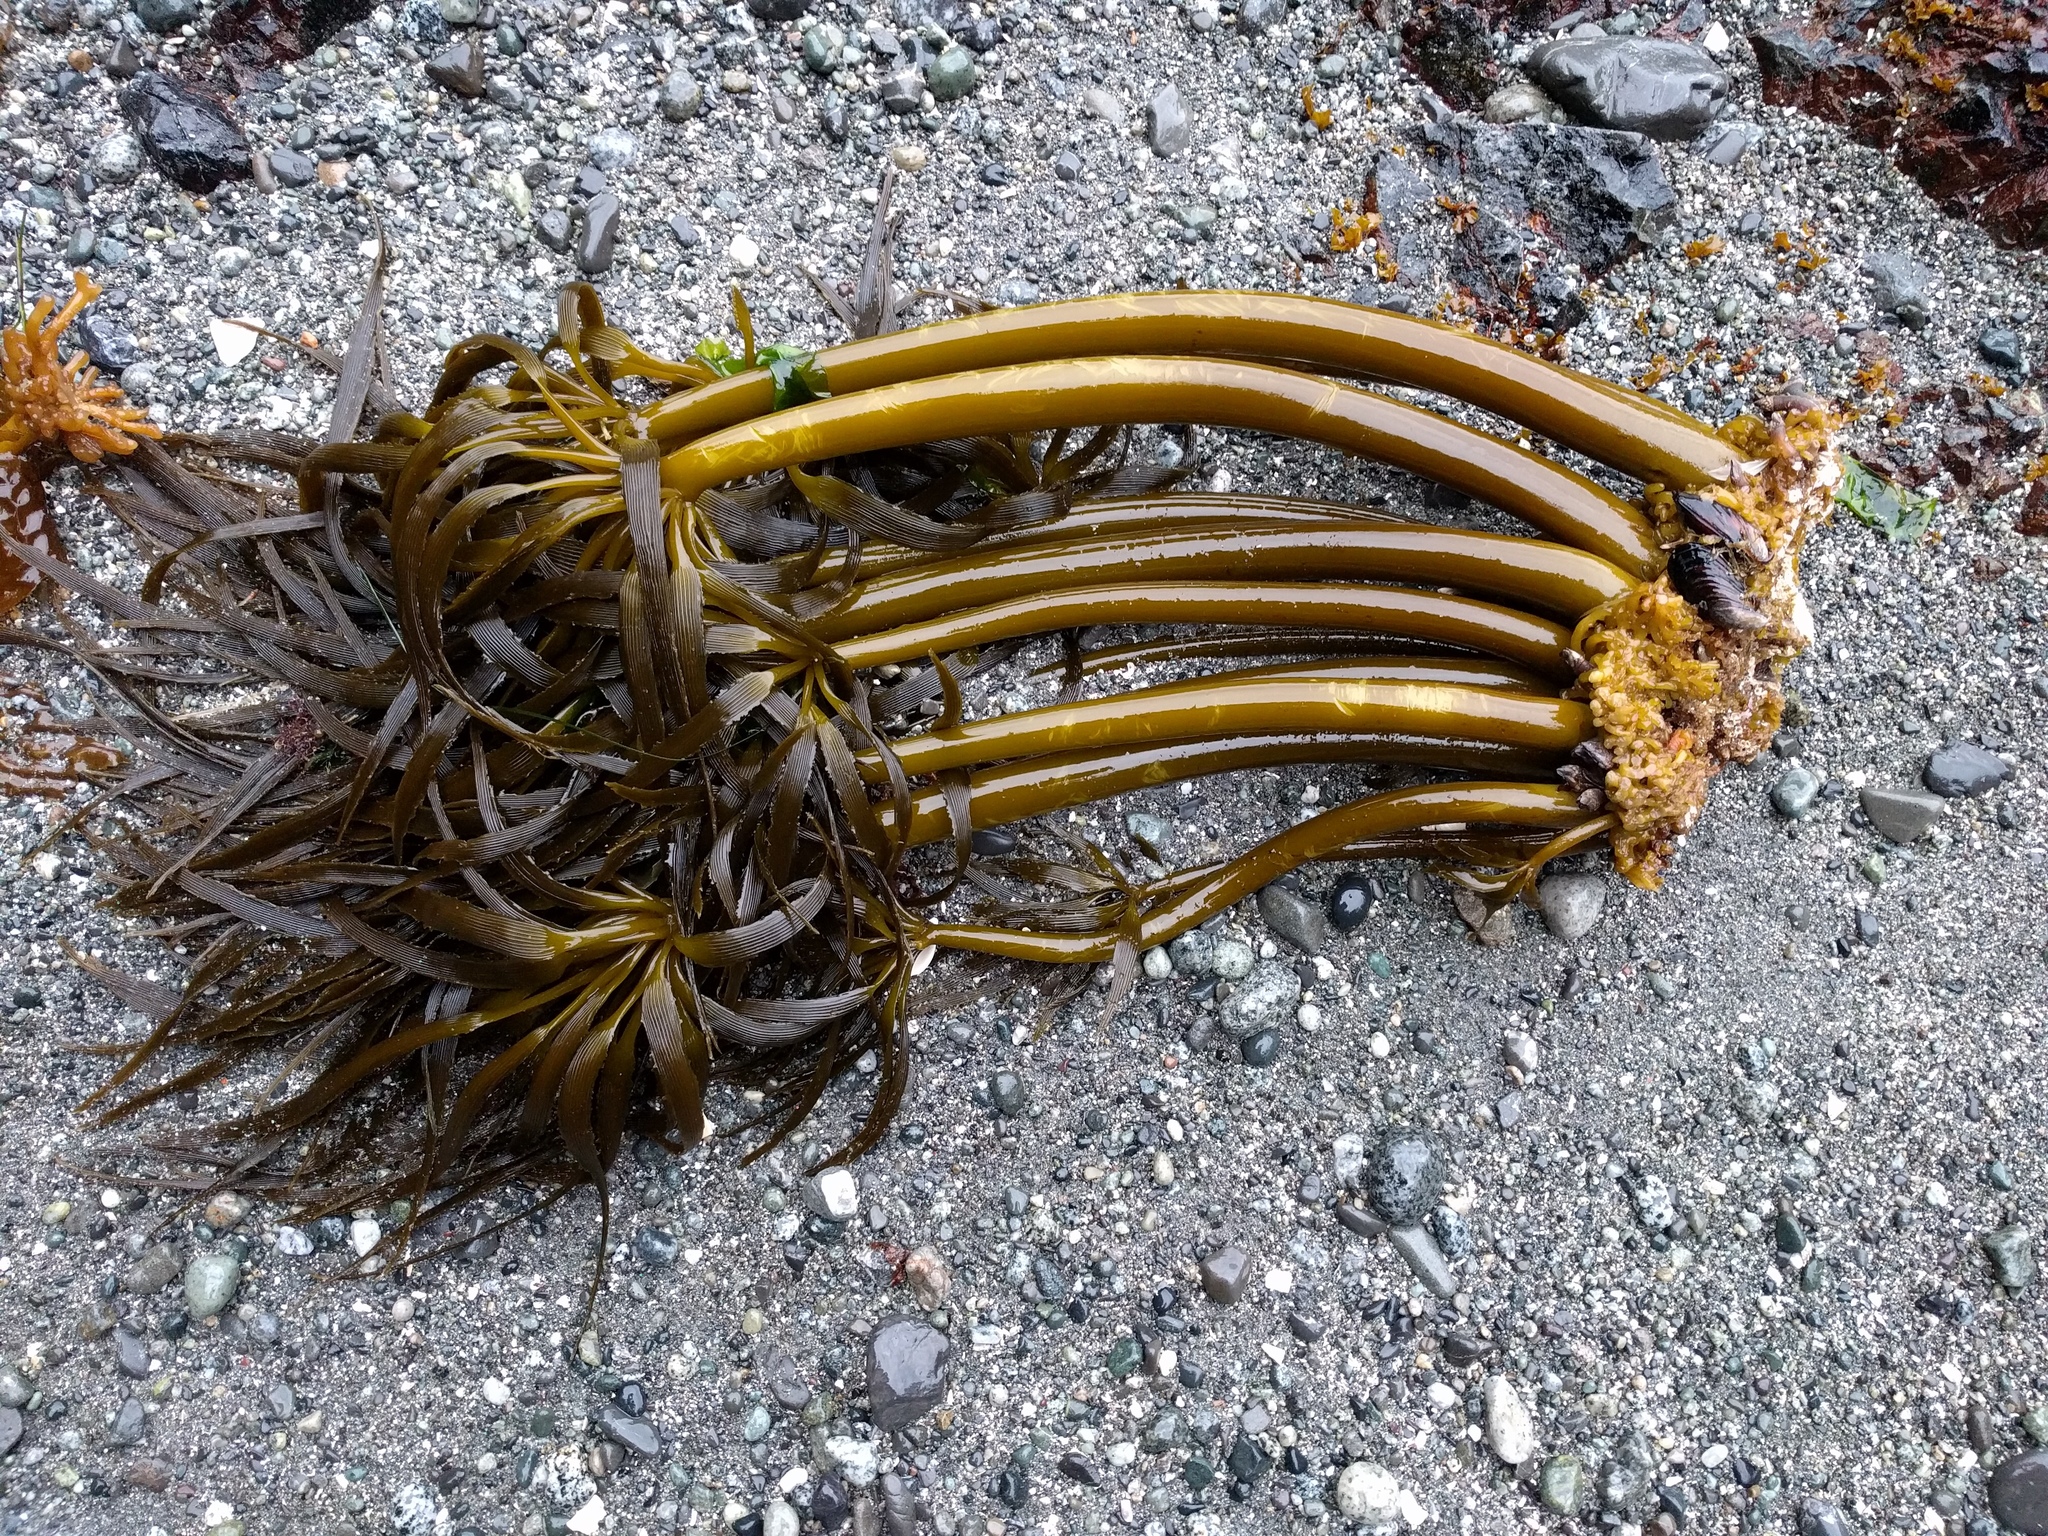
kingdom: Chromista
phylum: Ochrophyta
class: Phaeophyceae
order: Laminariales
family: Laminariaceae
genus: Postelsia
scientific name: Postelsia palmiformis
